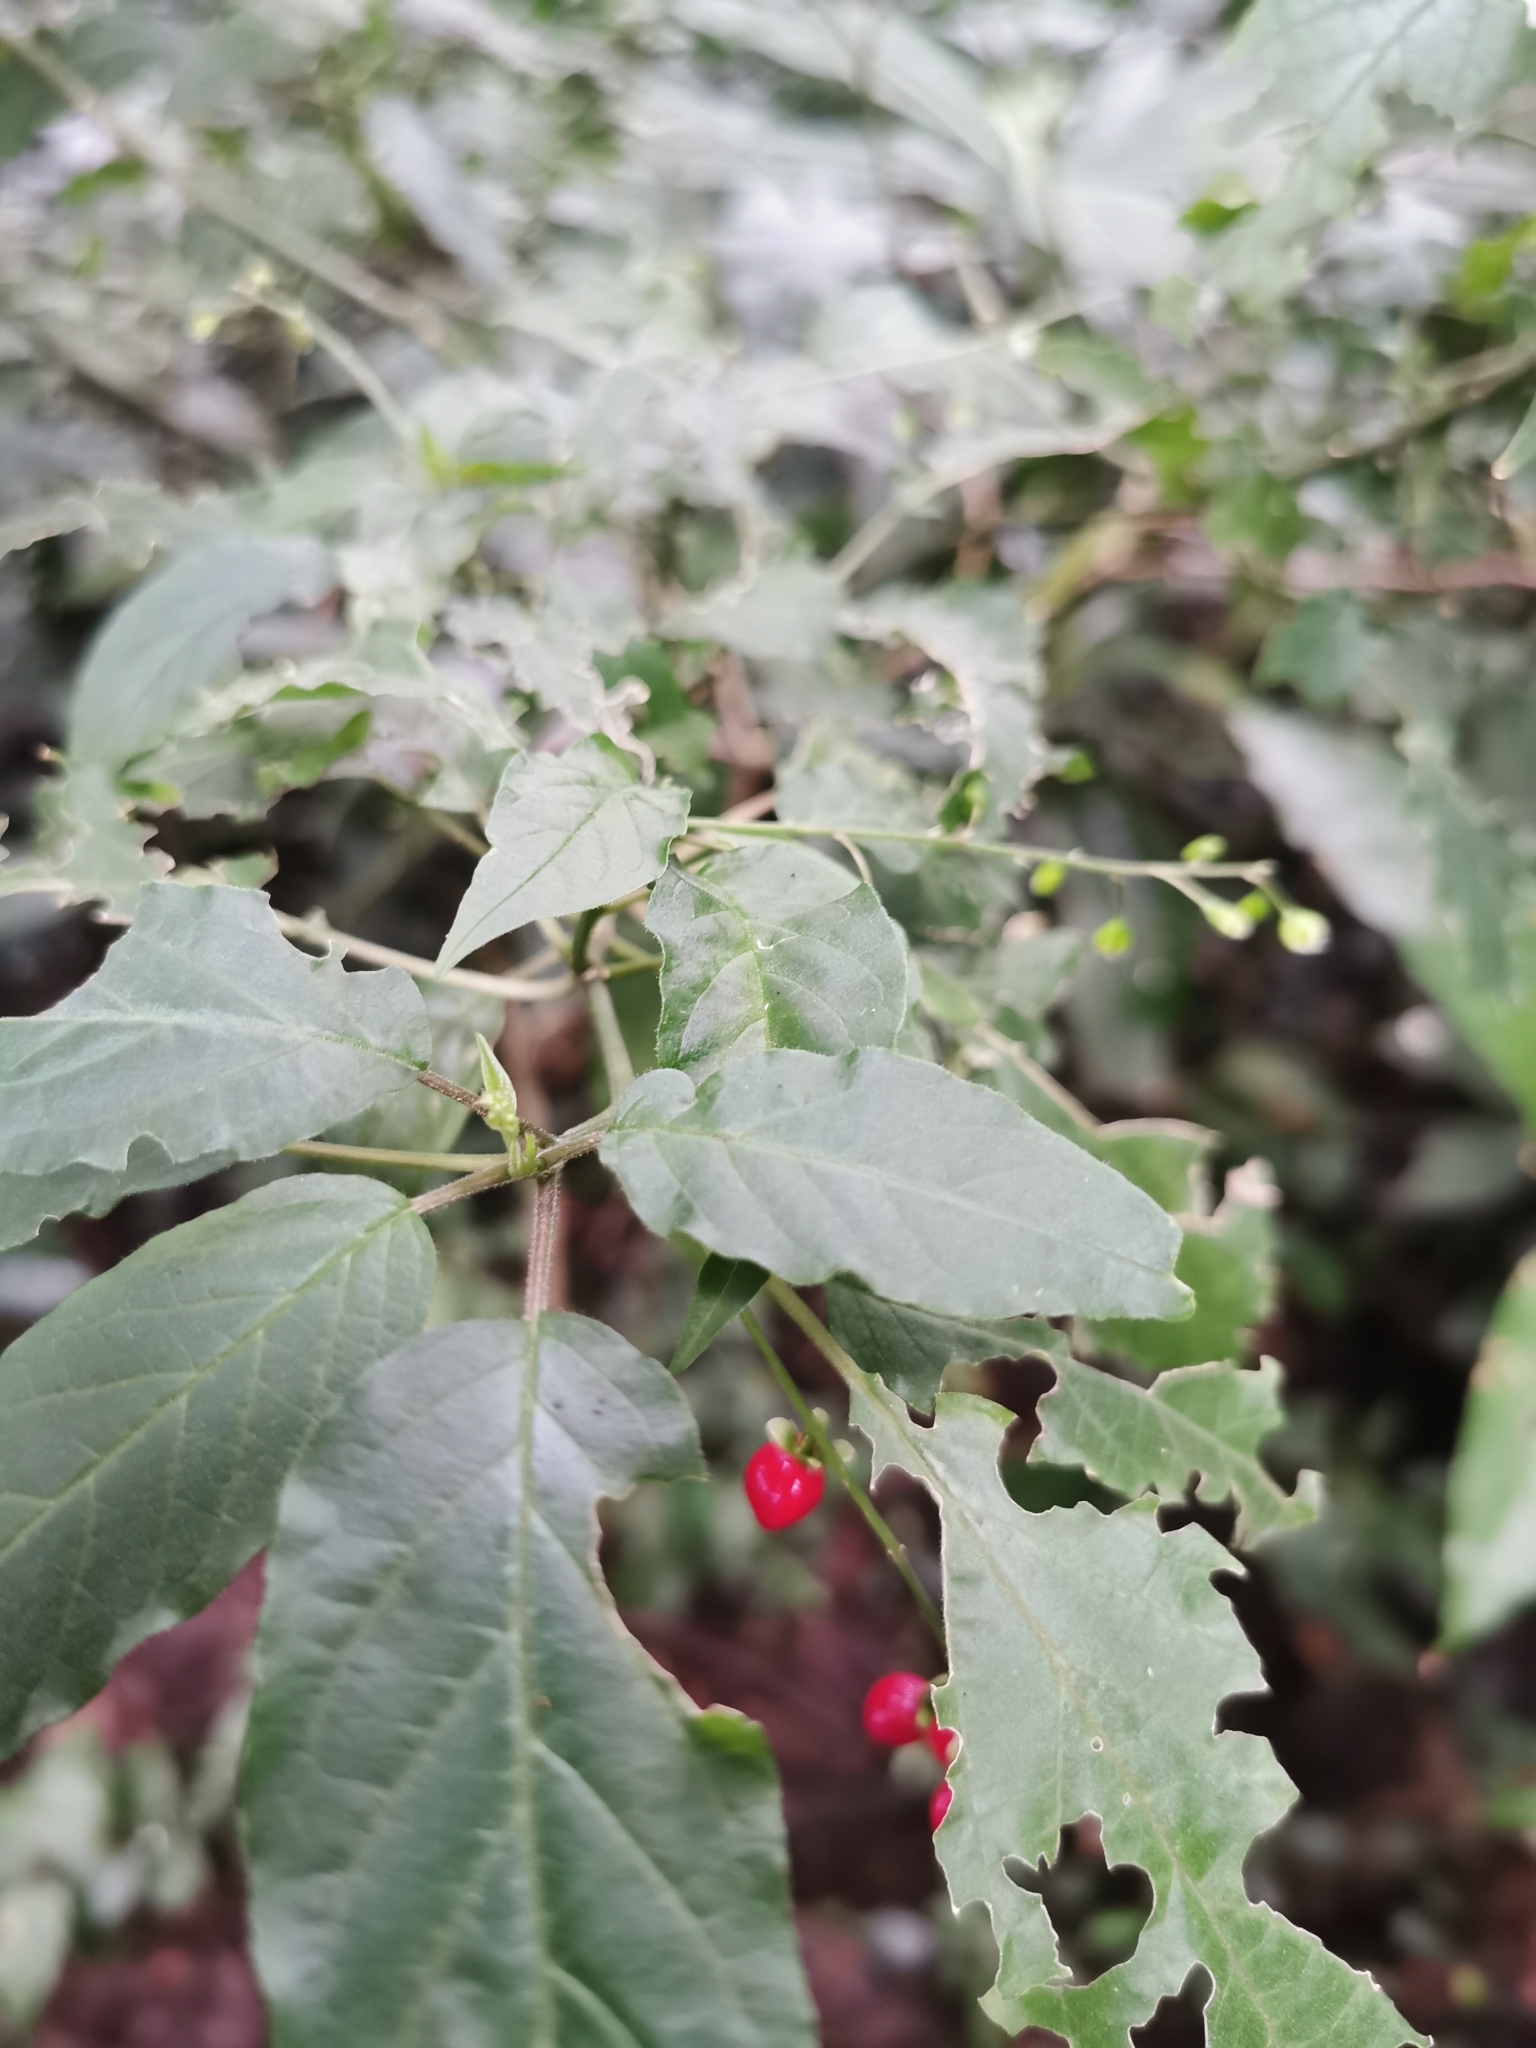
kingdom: Plantae
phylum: Tracheophyta
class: Magnoliopsida
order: Caryophyllales
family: Phytolaccaceae
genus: Rivina
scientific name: Rivina humilis
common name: Rougeplant
